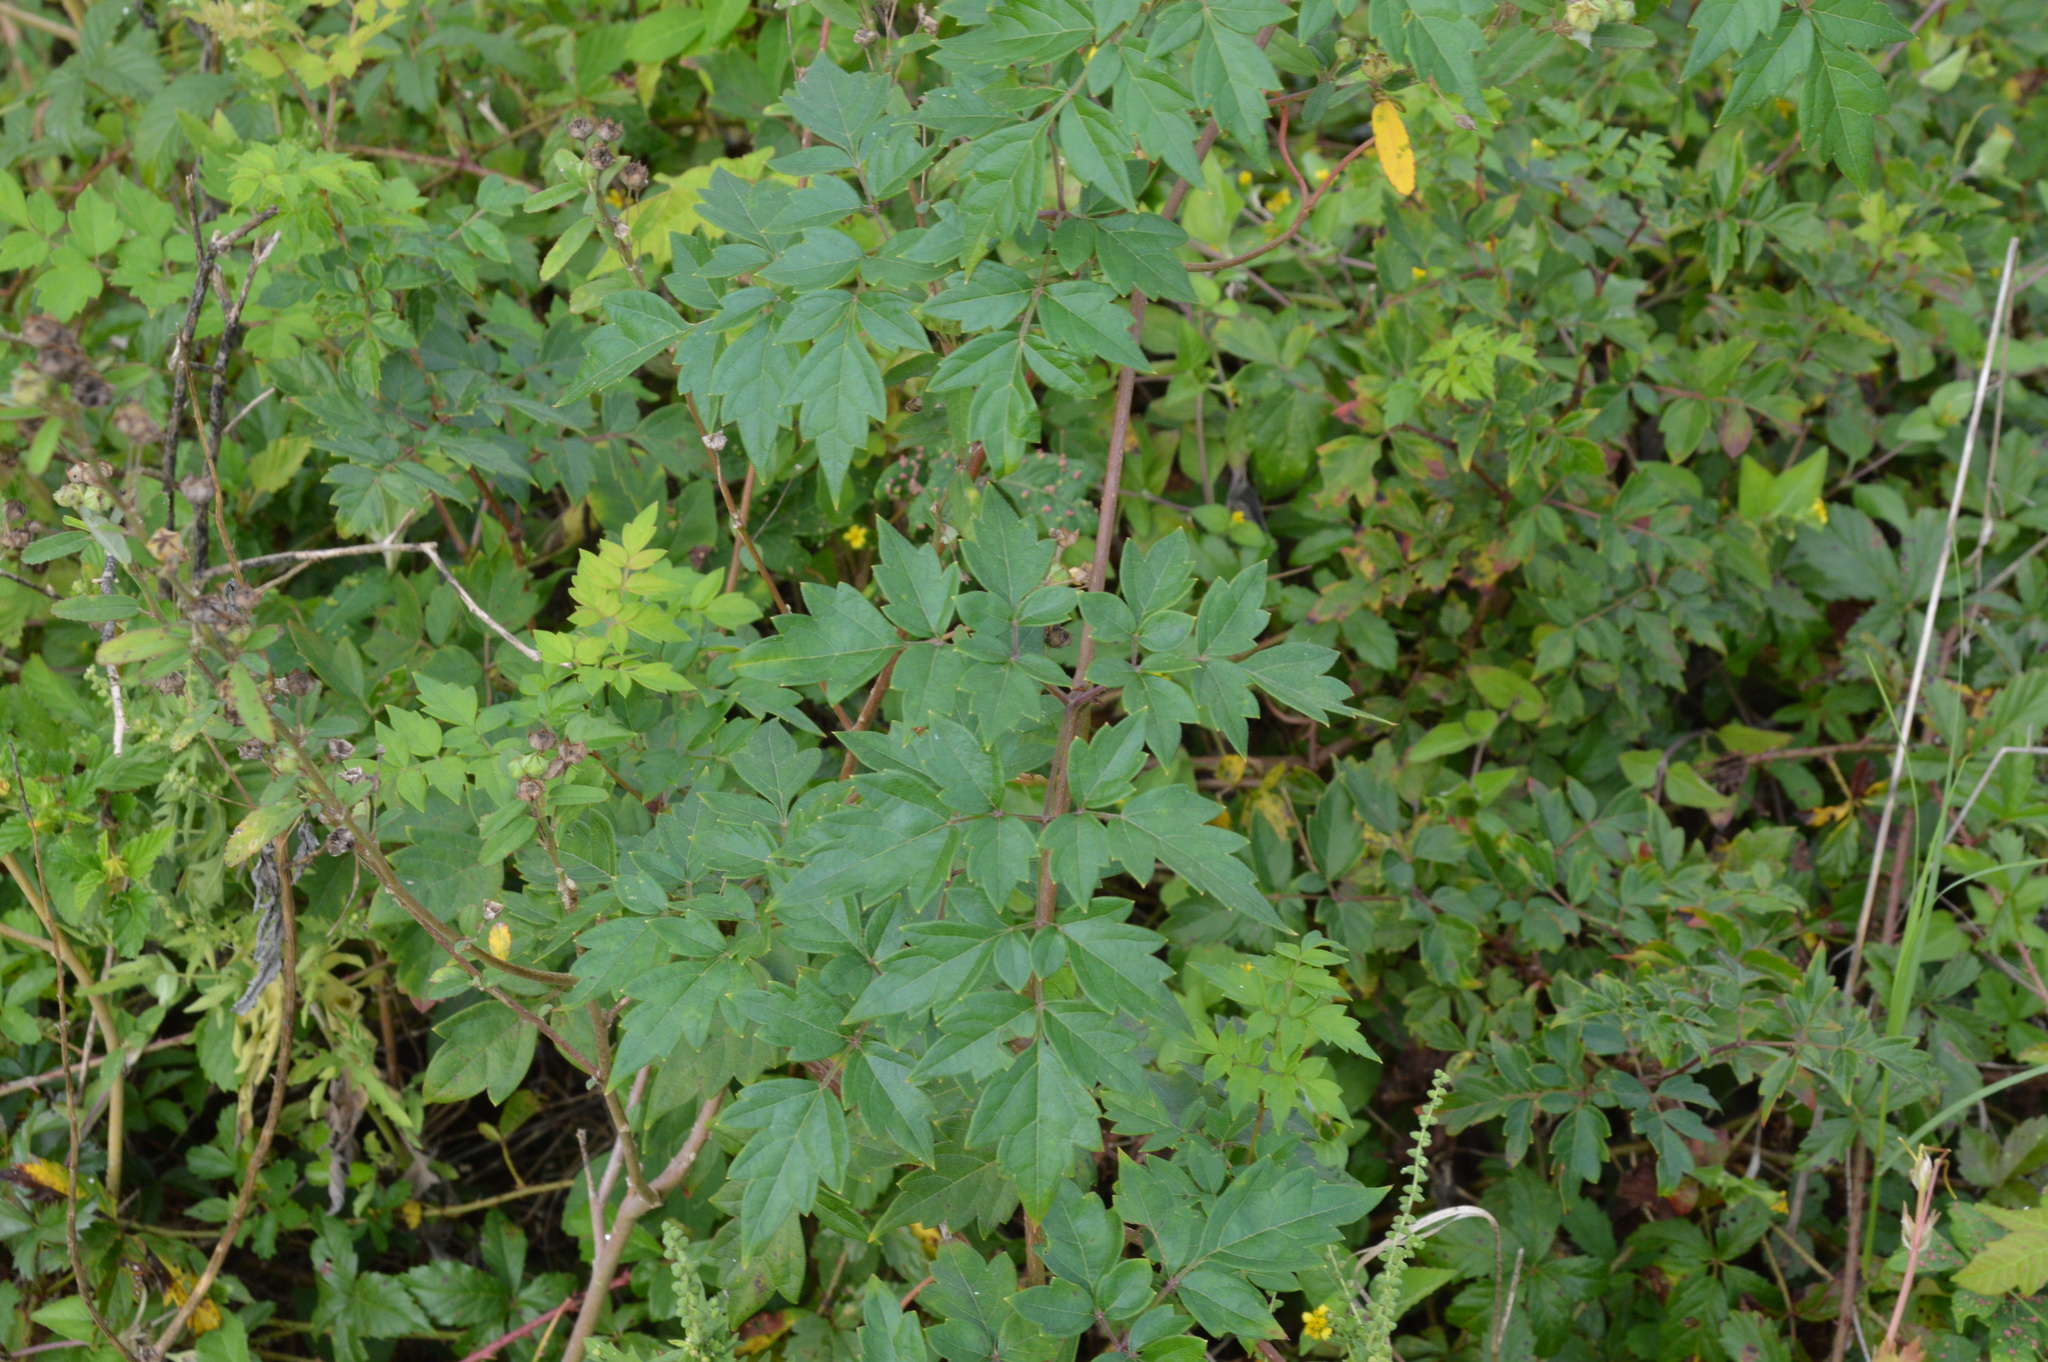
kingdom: Plantae
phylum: Tracheophyta
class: Magnoliopsida
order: Vitales
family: Vitaceae
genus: Nekemias
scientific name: Nekemias arborea
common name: Peppervine
